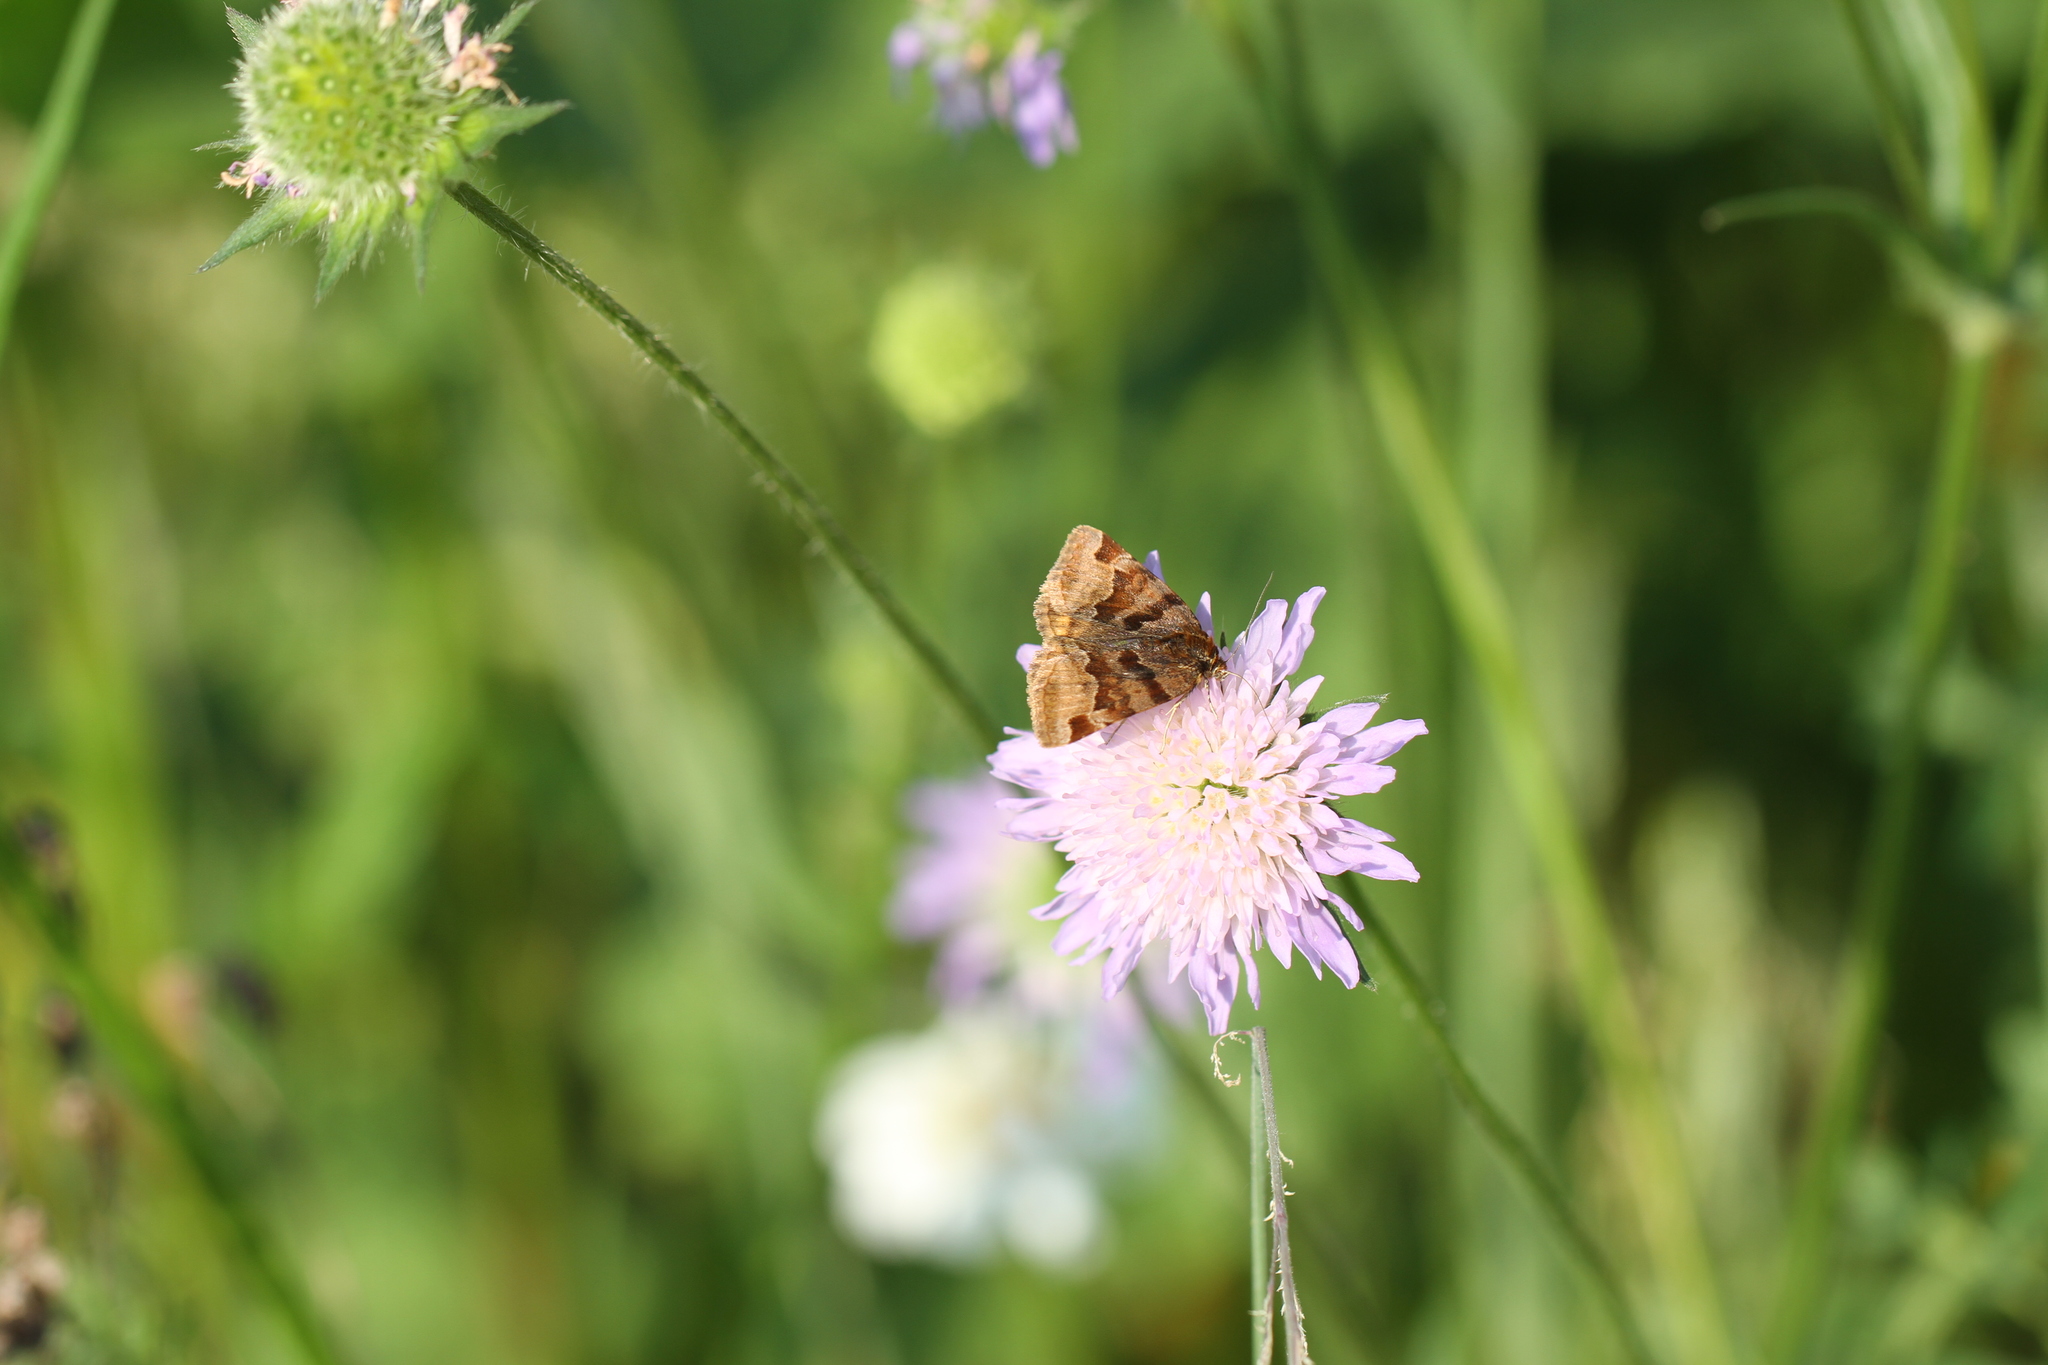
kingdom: Animalia
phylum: Arthropoda
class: Insecta
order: Lepidoptera
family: Erebidae
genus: Euclidia
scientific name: Euclidia glyphica
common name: Burnet companion
